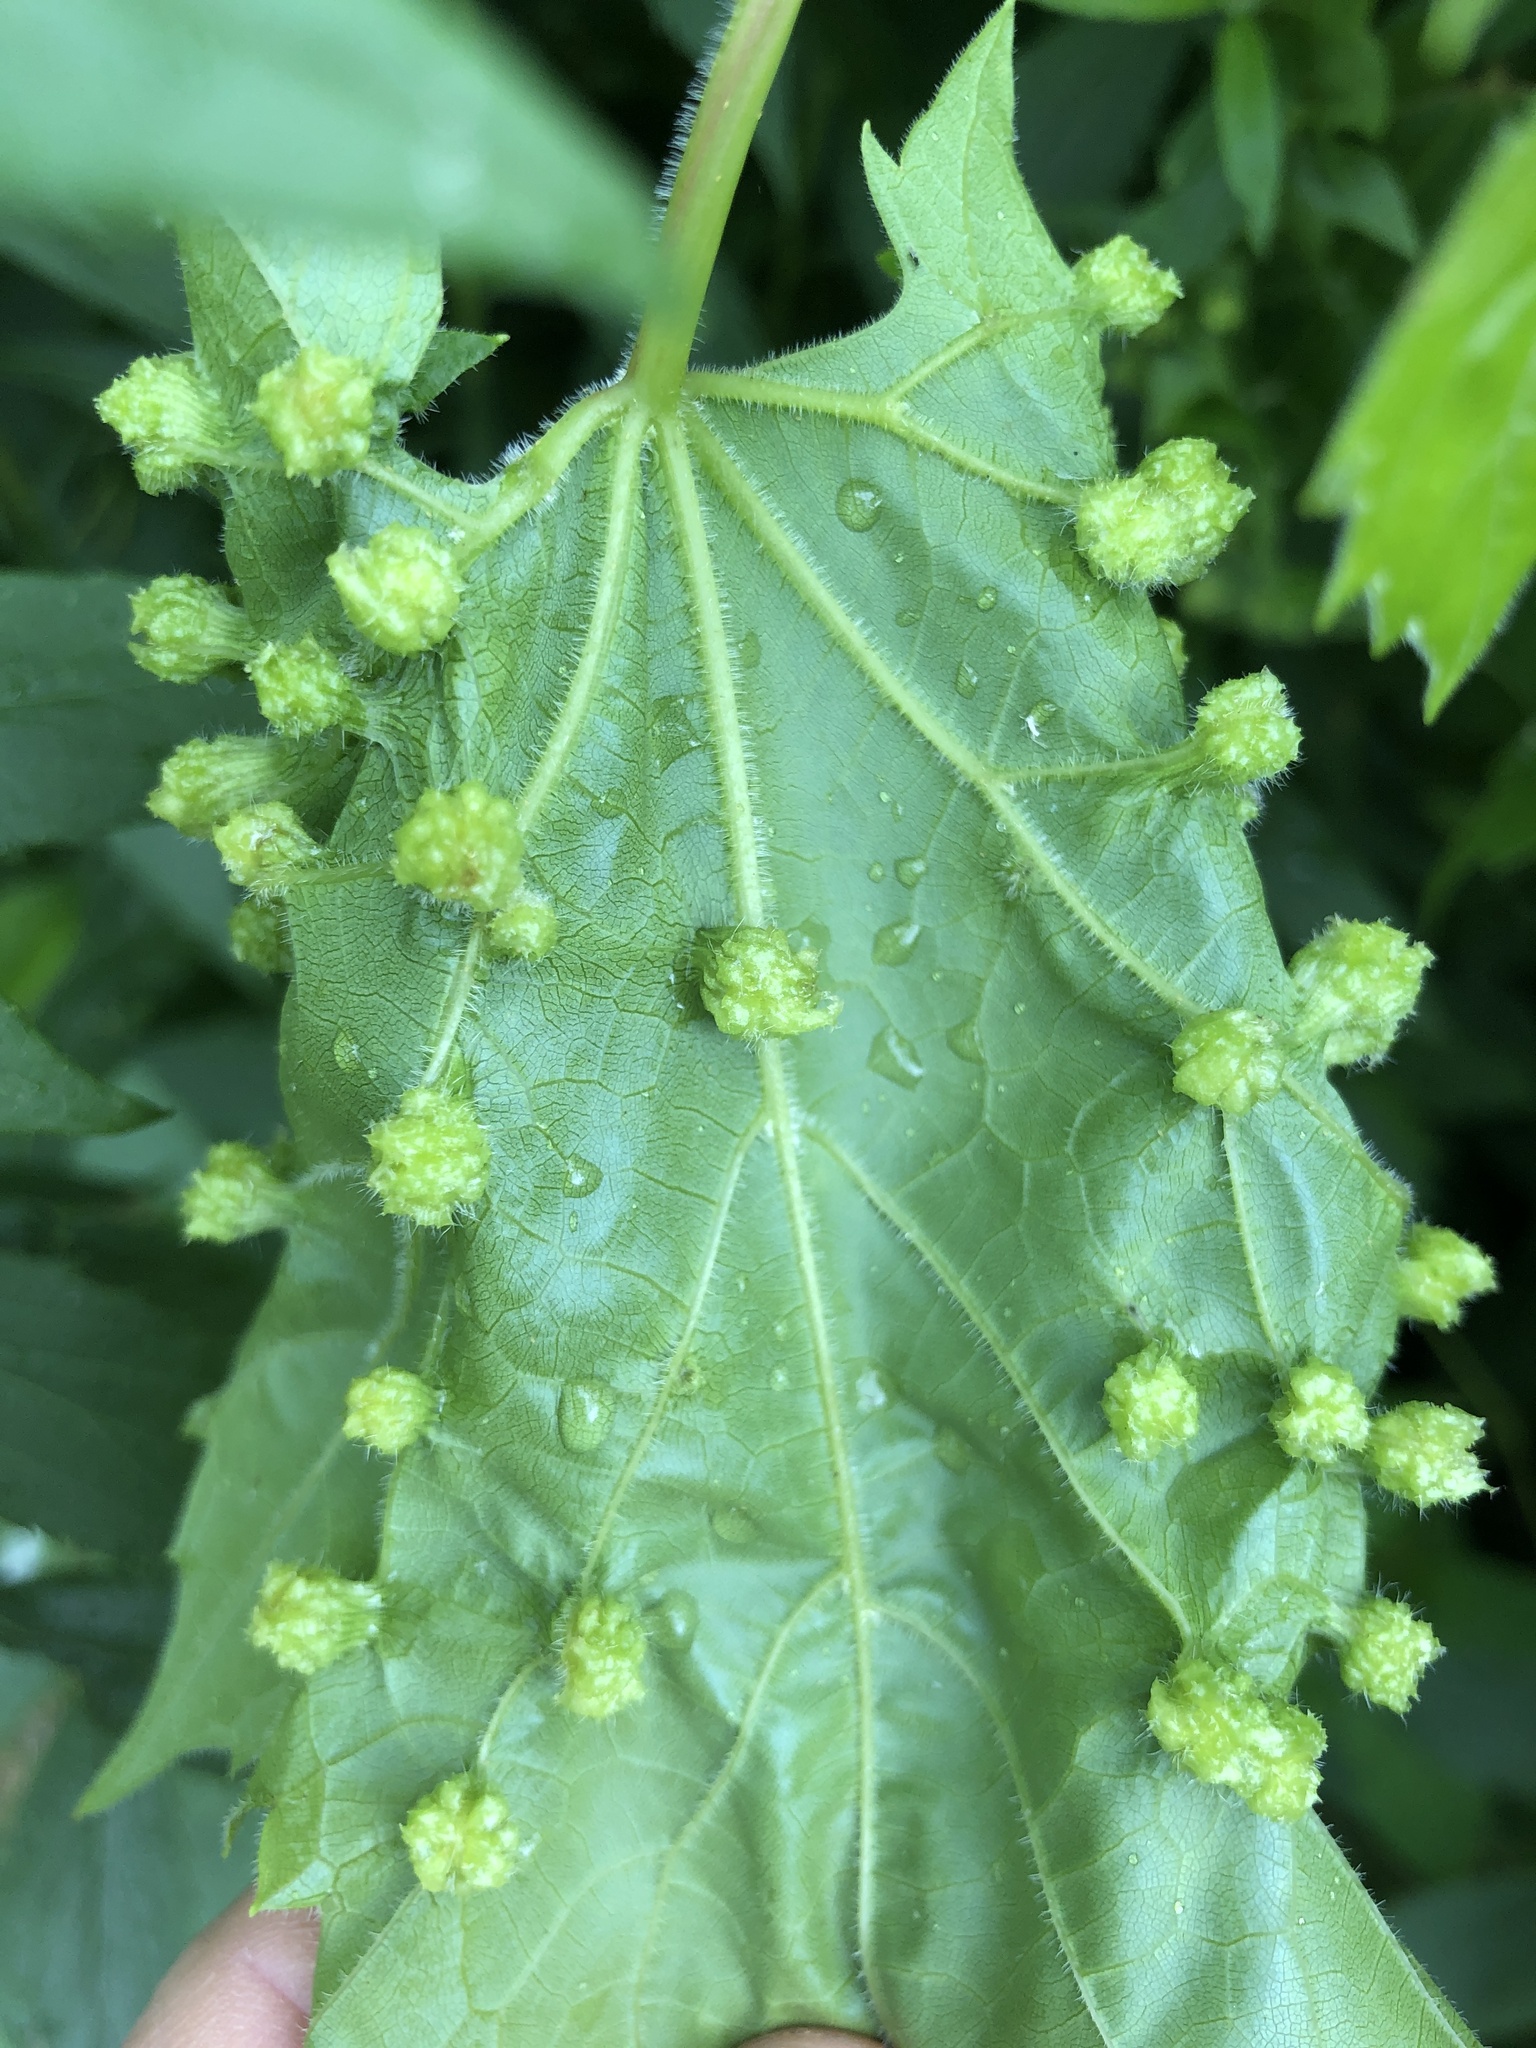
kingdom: Animalia
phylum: Arthropoda
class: Insecta
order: Hemiptera
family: Phylloxeridae
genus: Daktulosphaira
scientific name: Daktulosphaira vitifoliae
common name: Grape phylloxera
